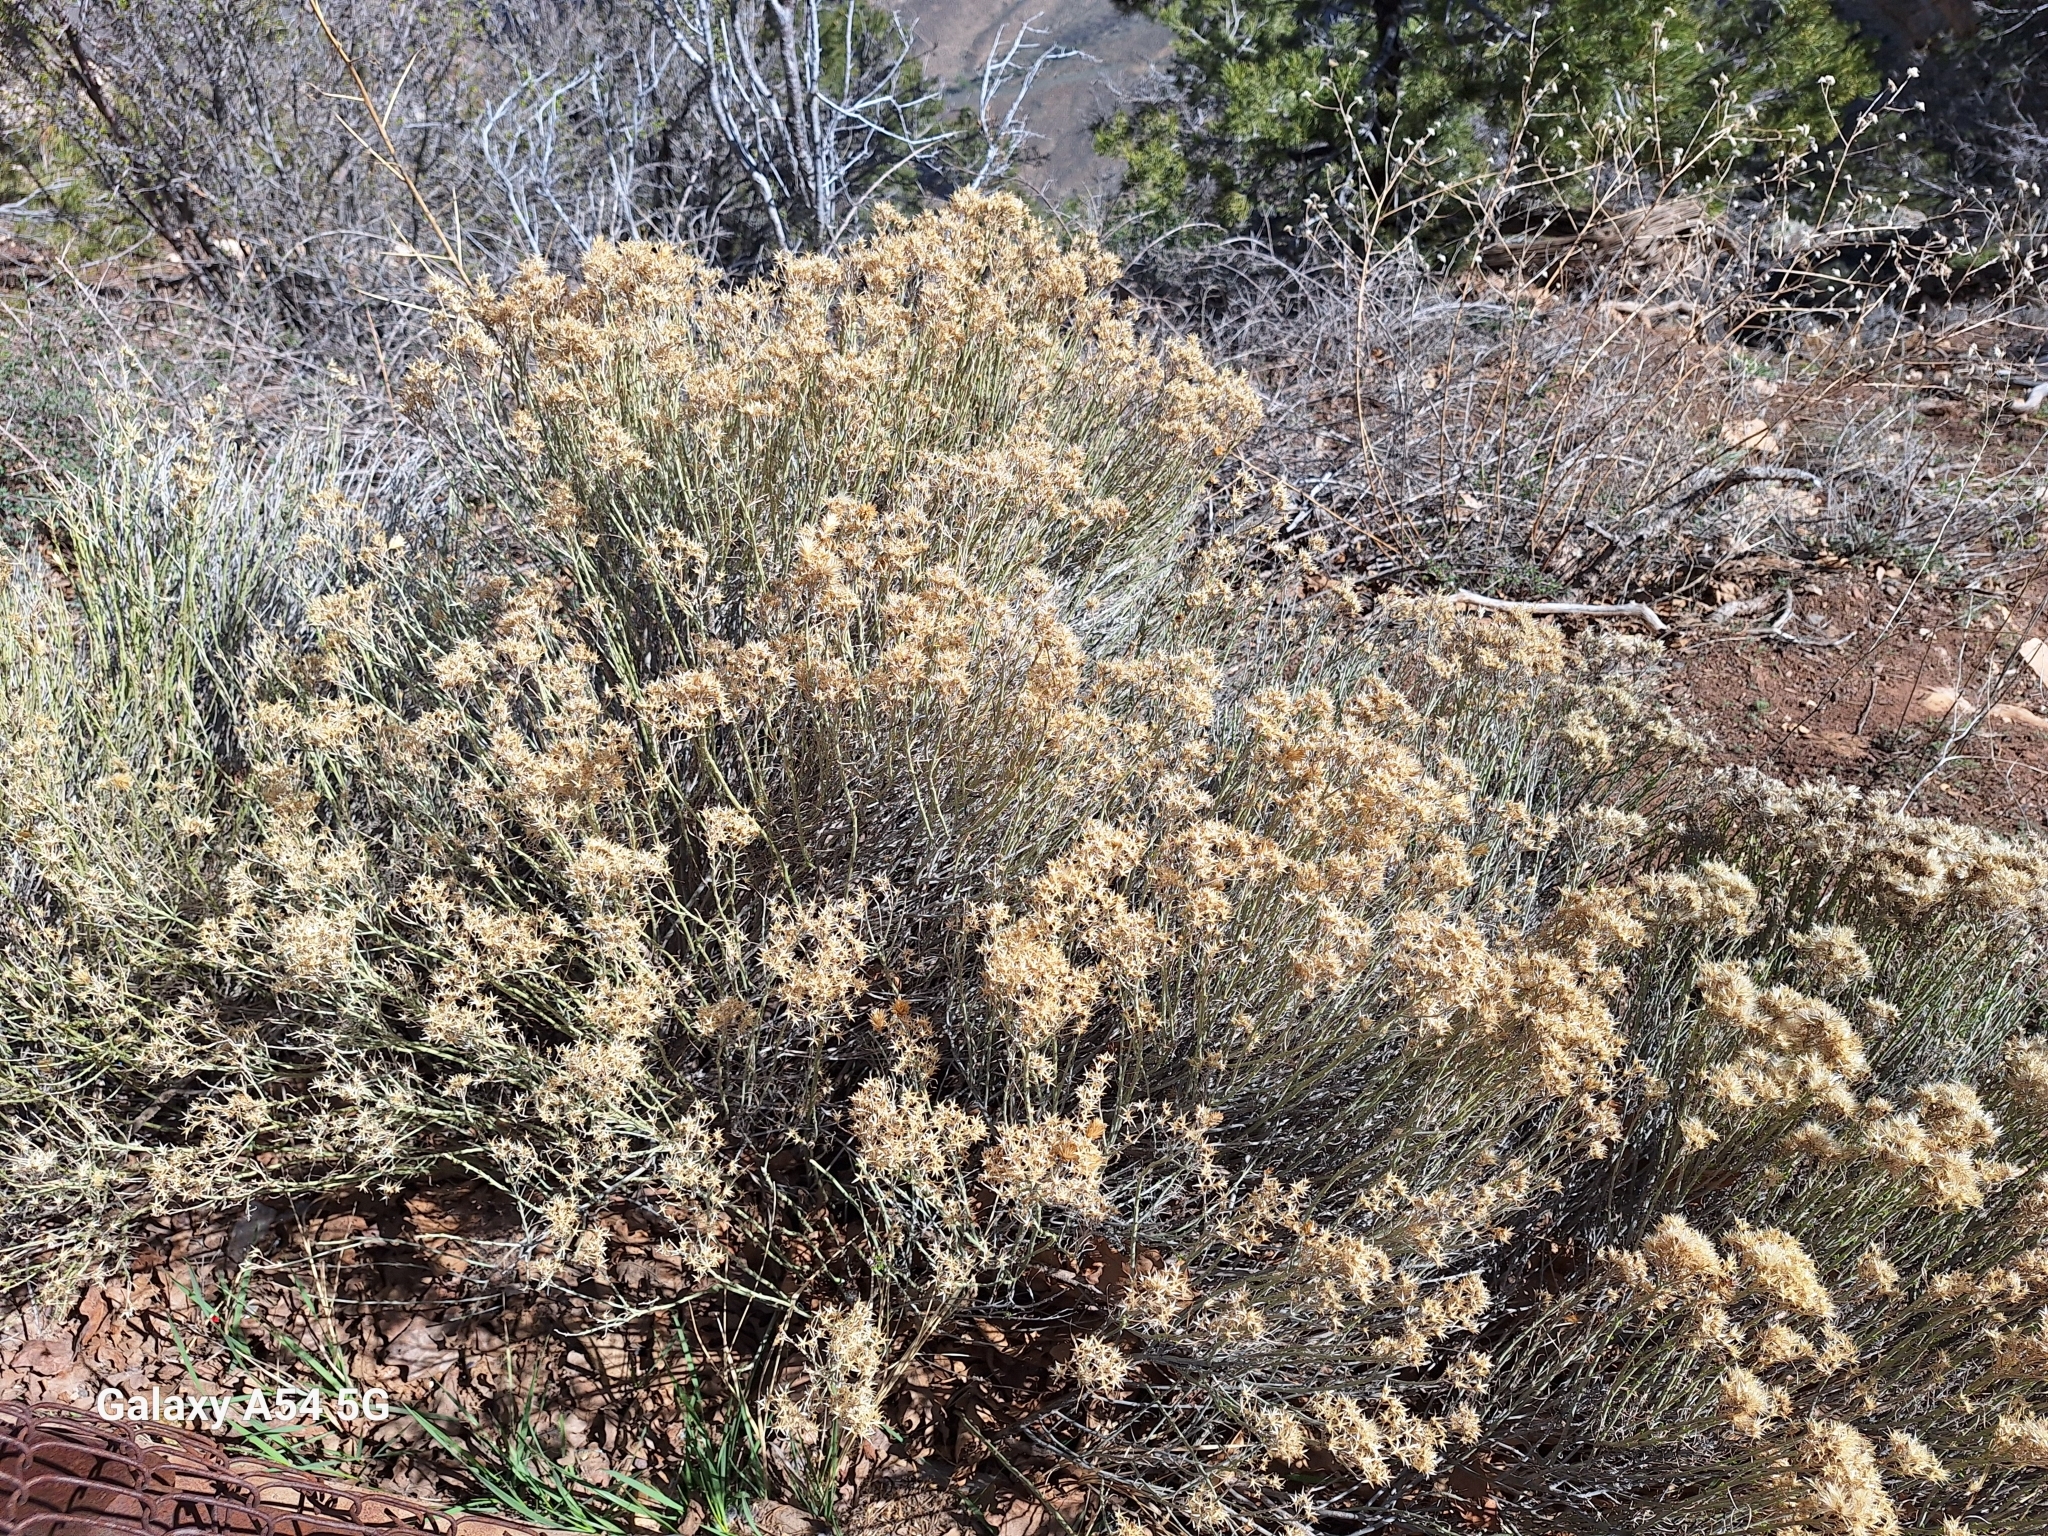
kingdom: Plantae
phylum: Tracheophyta
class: Magnoliopsida
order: Asterales
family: Asteraceae
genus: Ericameria
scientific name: Ericameria nauseosa
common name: Rubber rabbitbrush
